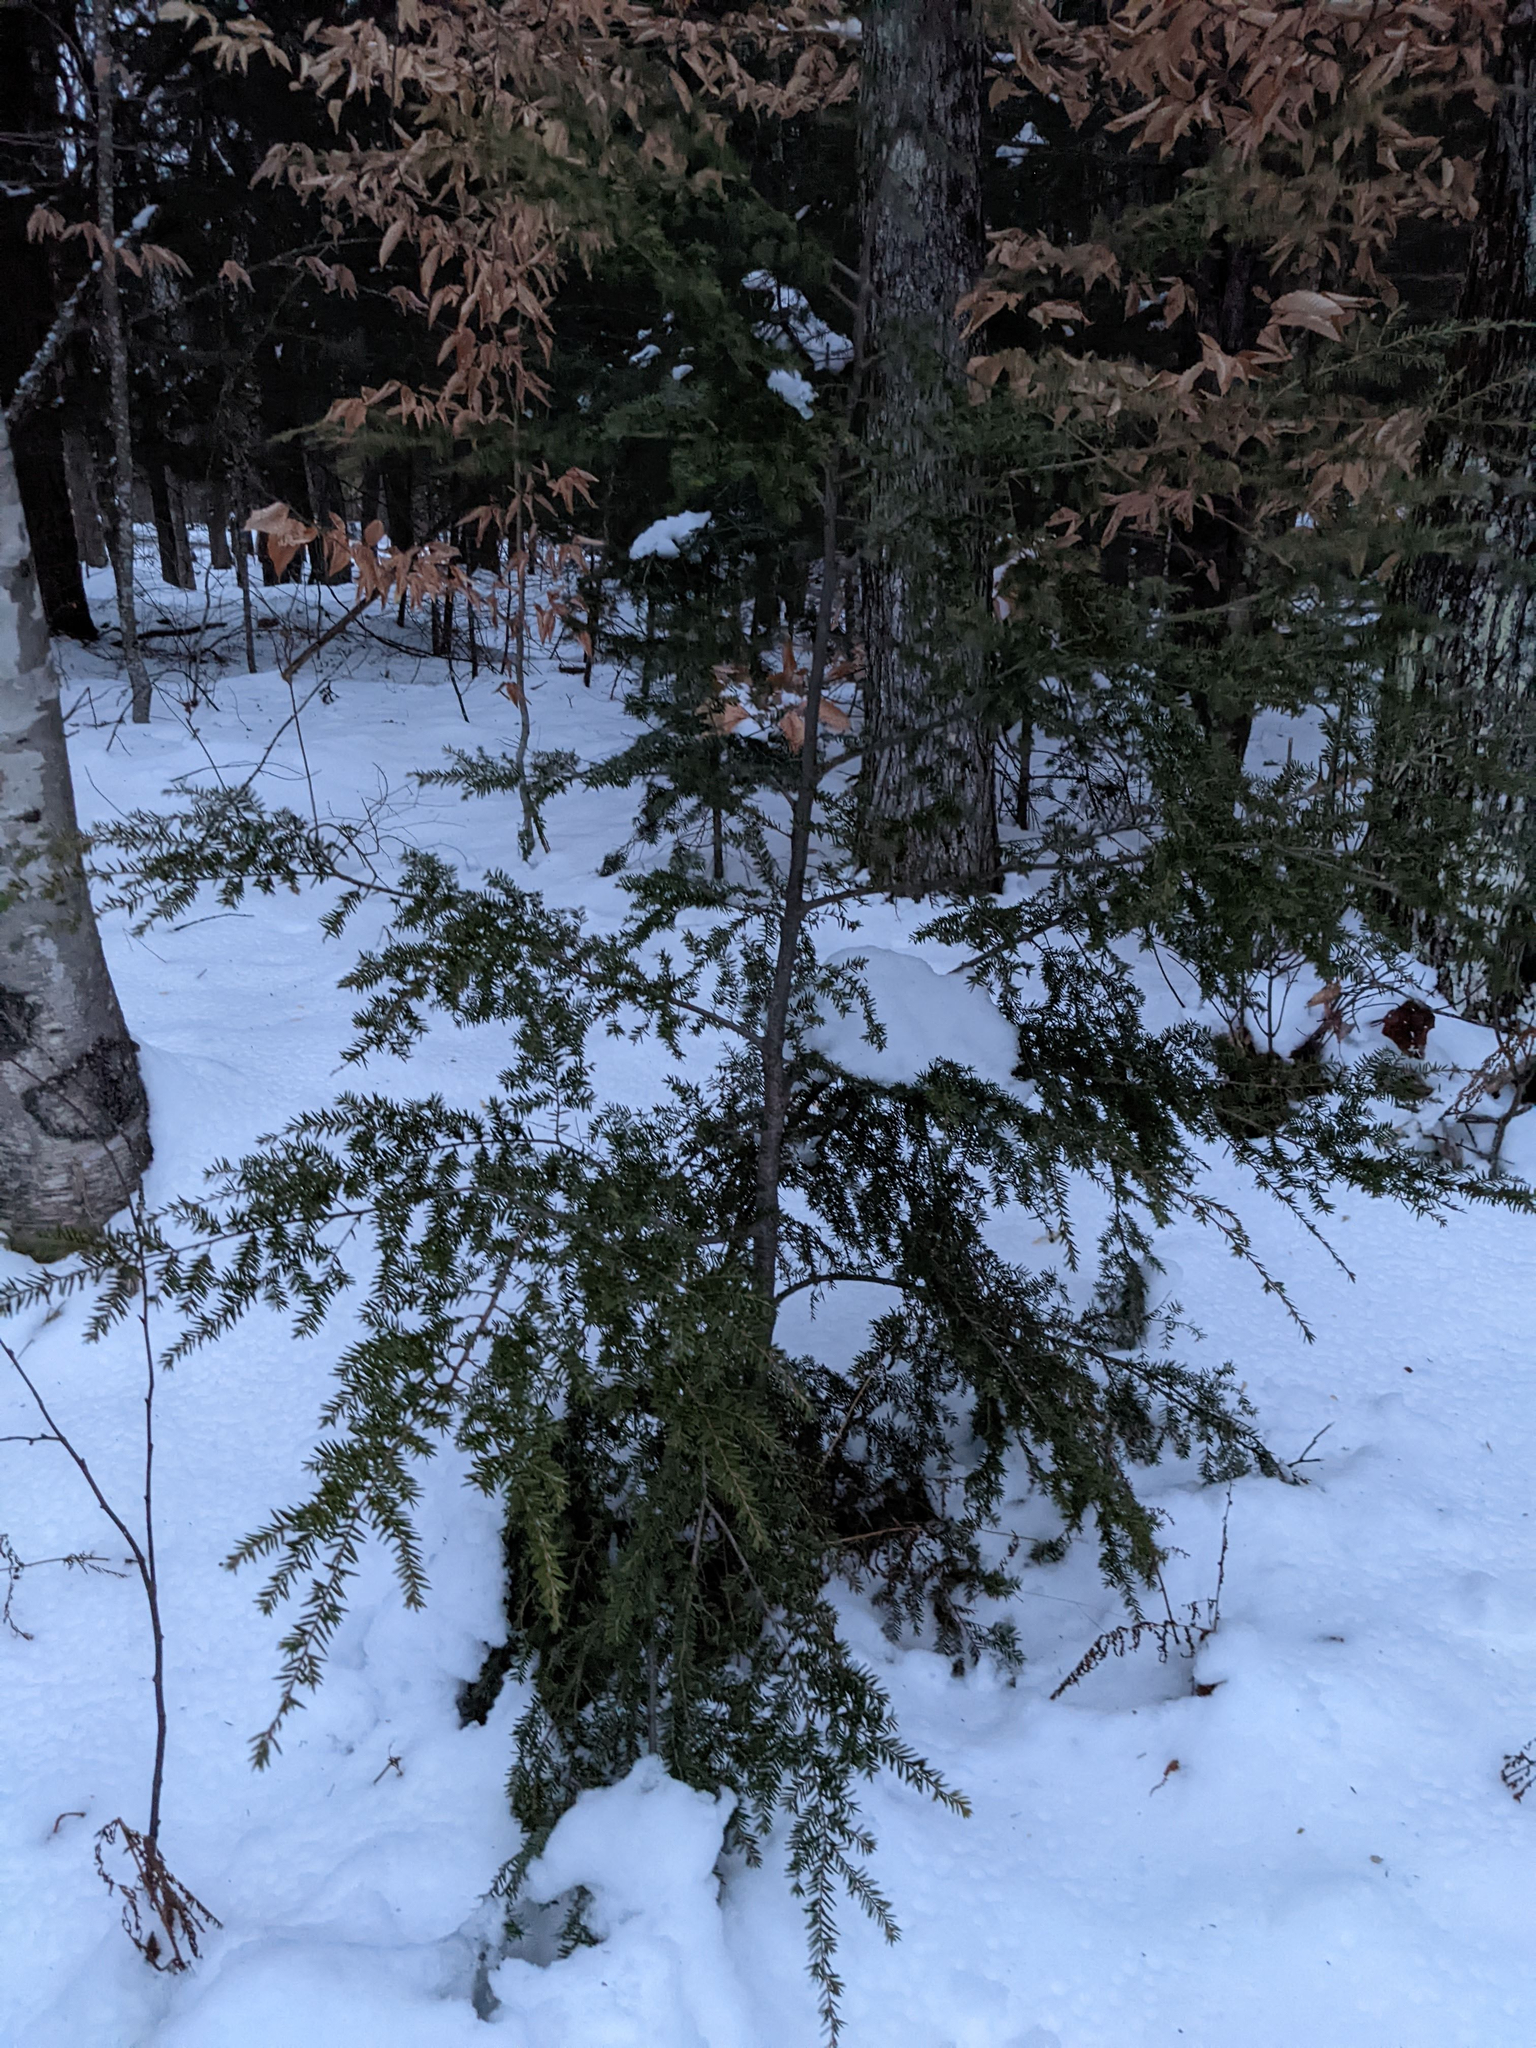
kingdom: Plantae
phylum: Tracheophyta
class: Pinopsida
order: Pinales
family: Pinaceae
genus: Tsuga
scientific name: Tsuga canadensis
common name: Eastern hemlock
